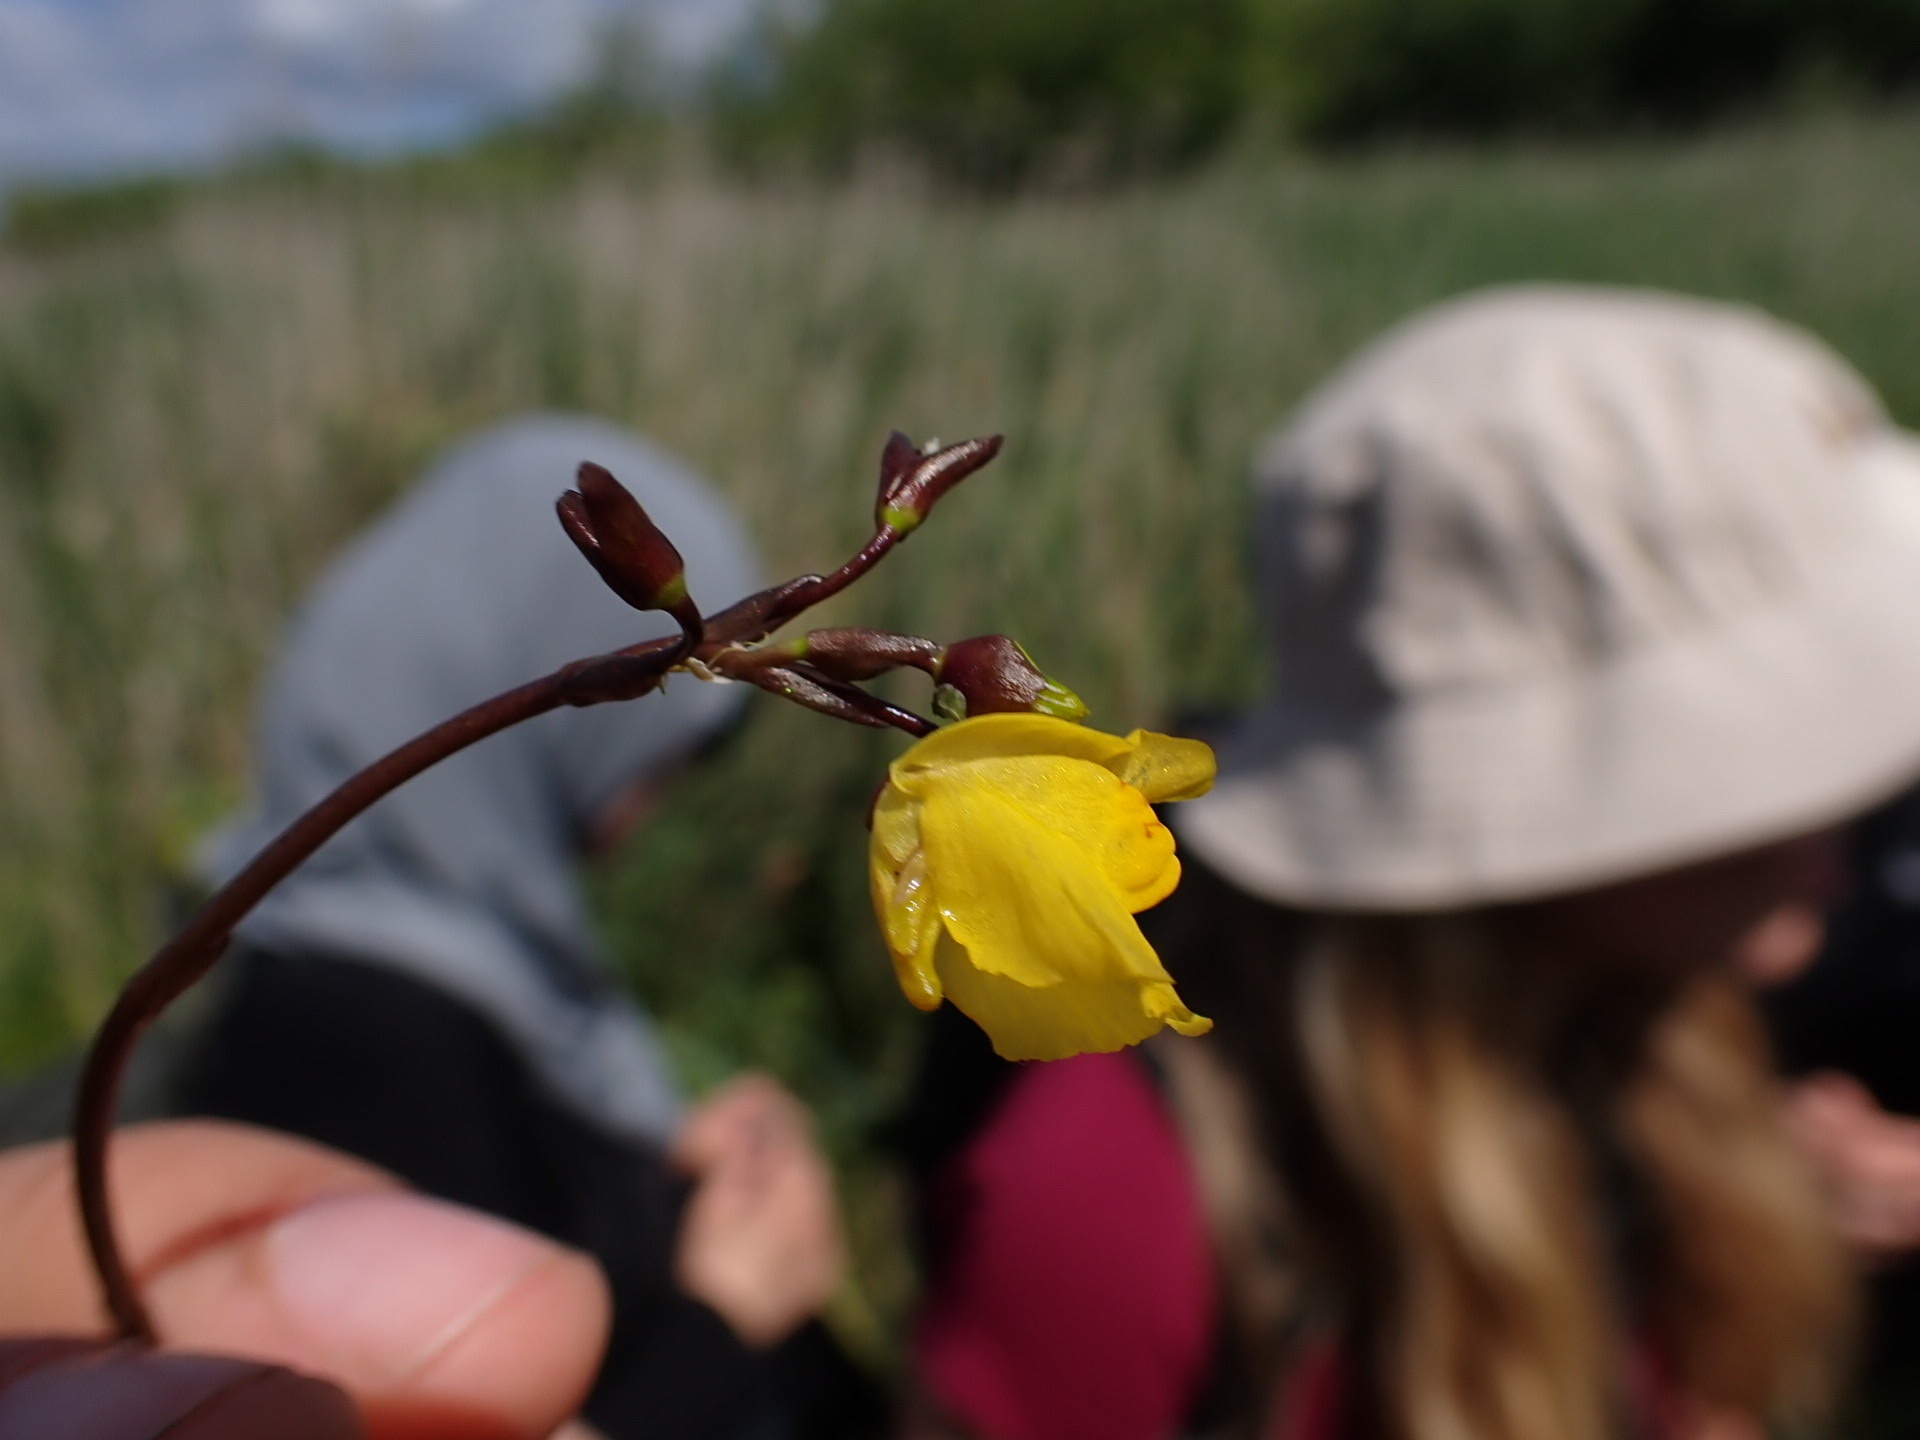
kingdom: Plantae
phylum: Tracheophyta
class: Magnoliopsida
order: Lamiales
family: Lentibulariaceae
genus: Utricularia
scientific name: Utricularia vulgaris
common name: Greater bladderwort
